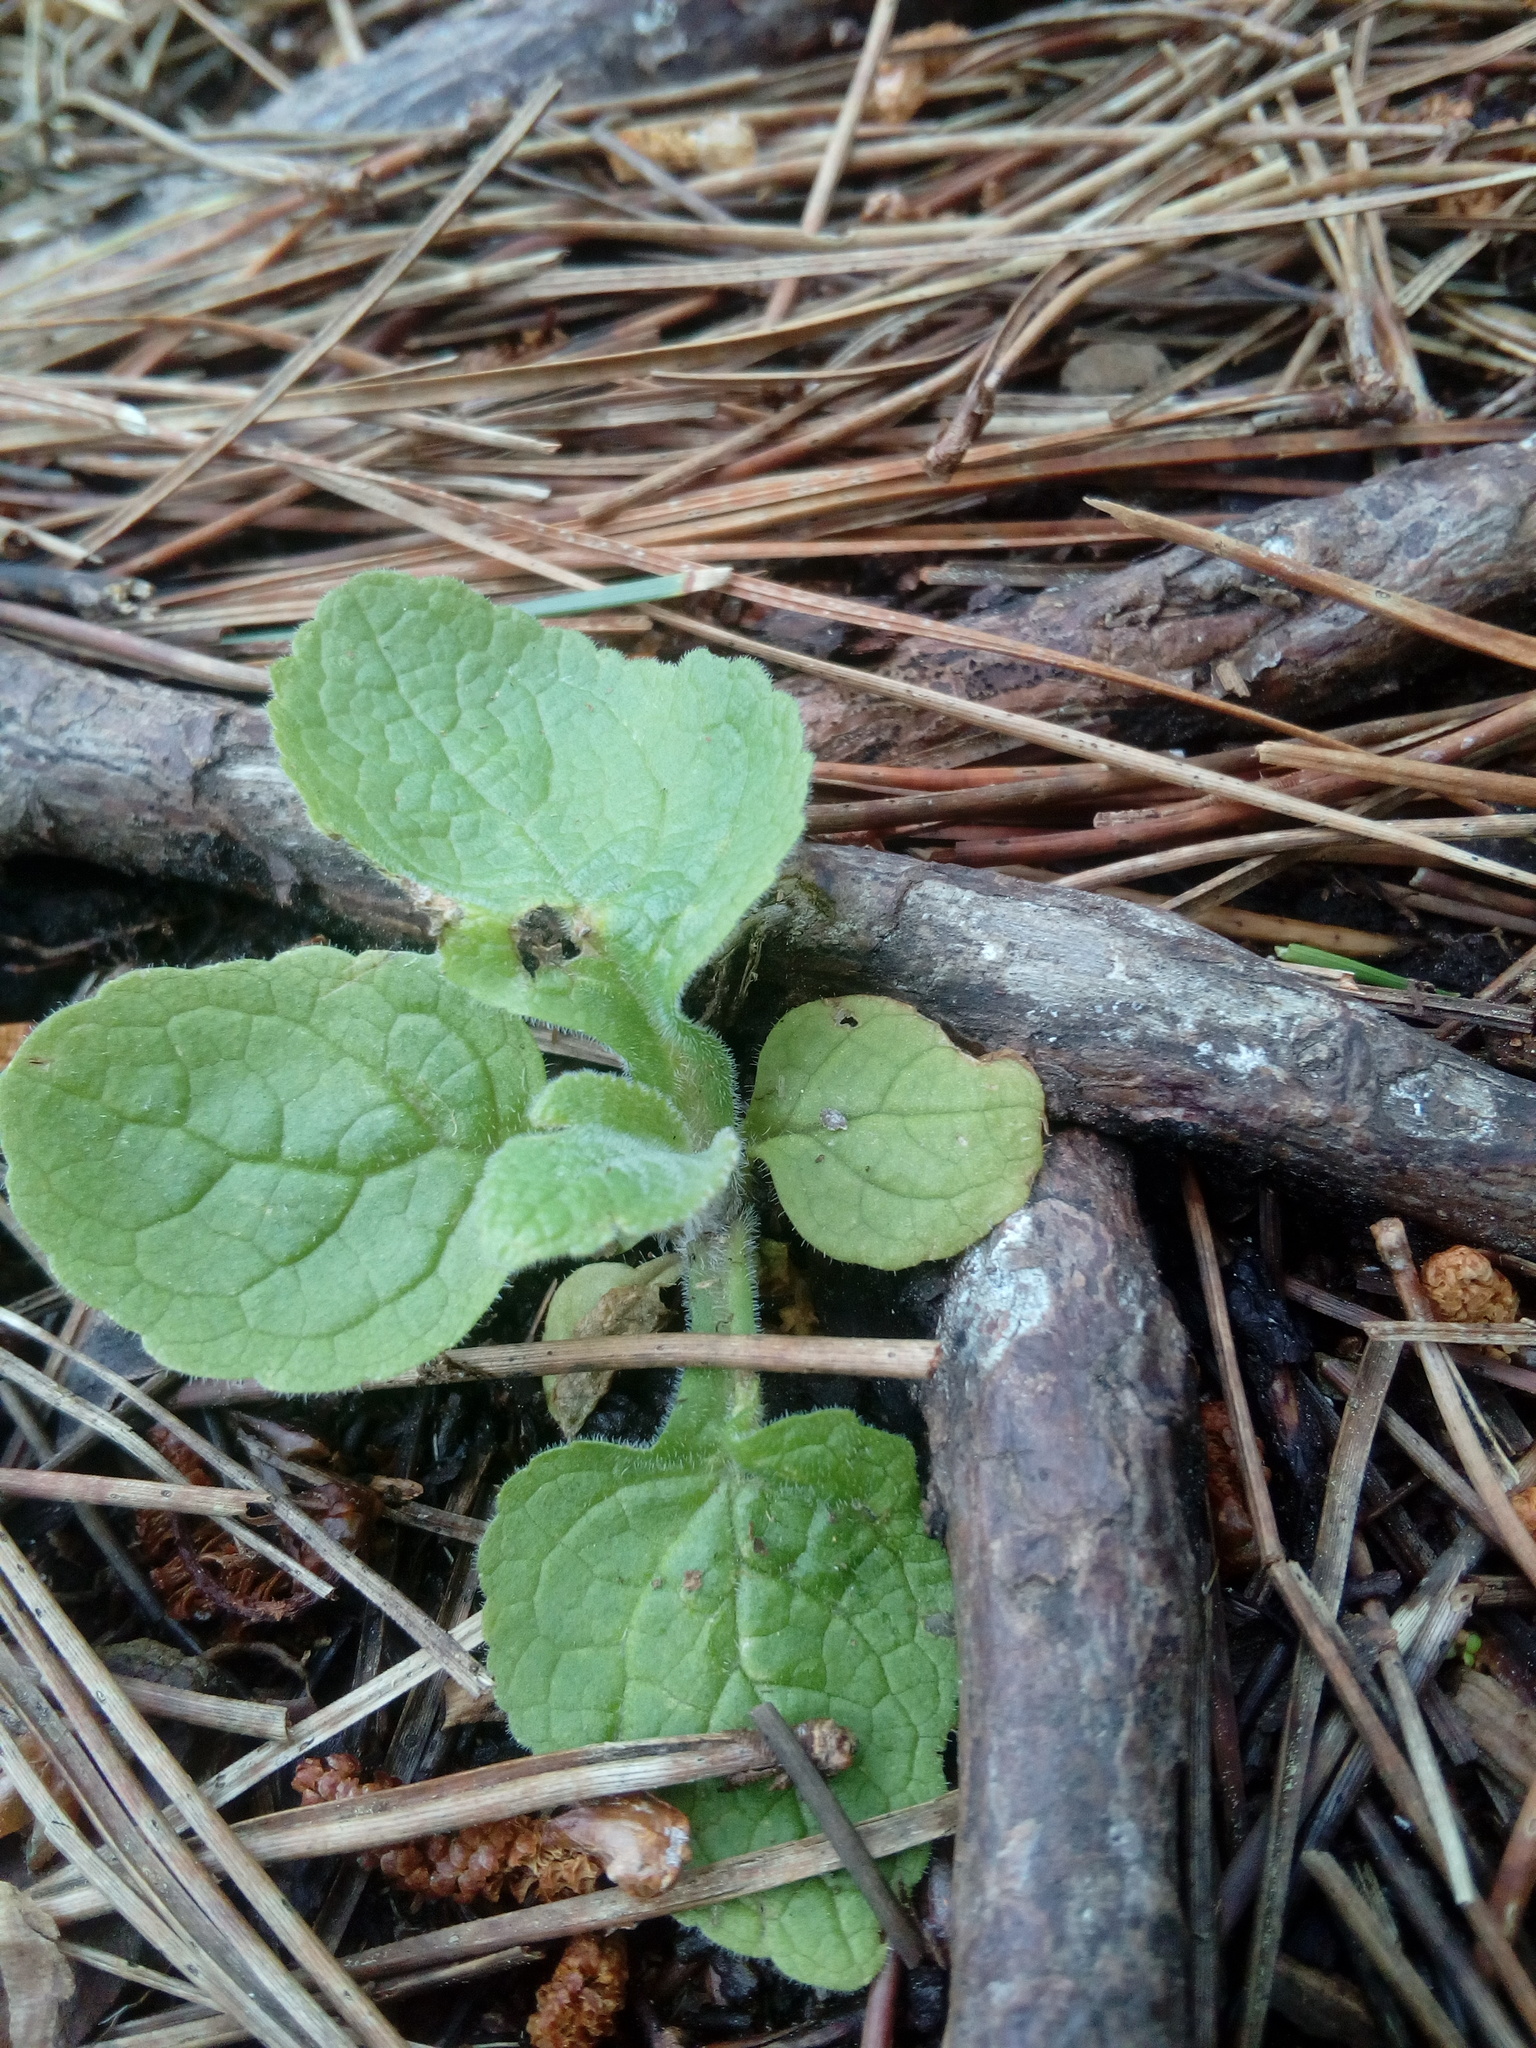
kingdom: Plantae
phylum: Tracheophyta
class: Magnoliopsida
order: Lamiales
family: Plantaginaceae
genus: Digitalis
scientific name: Digitalis purpurea
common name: Foxglove
